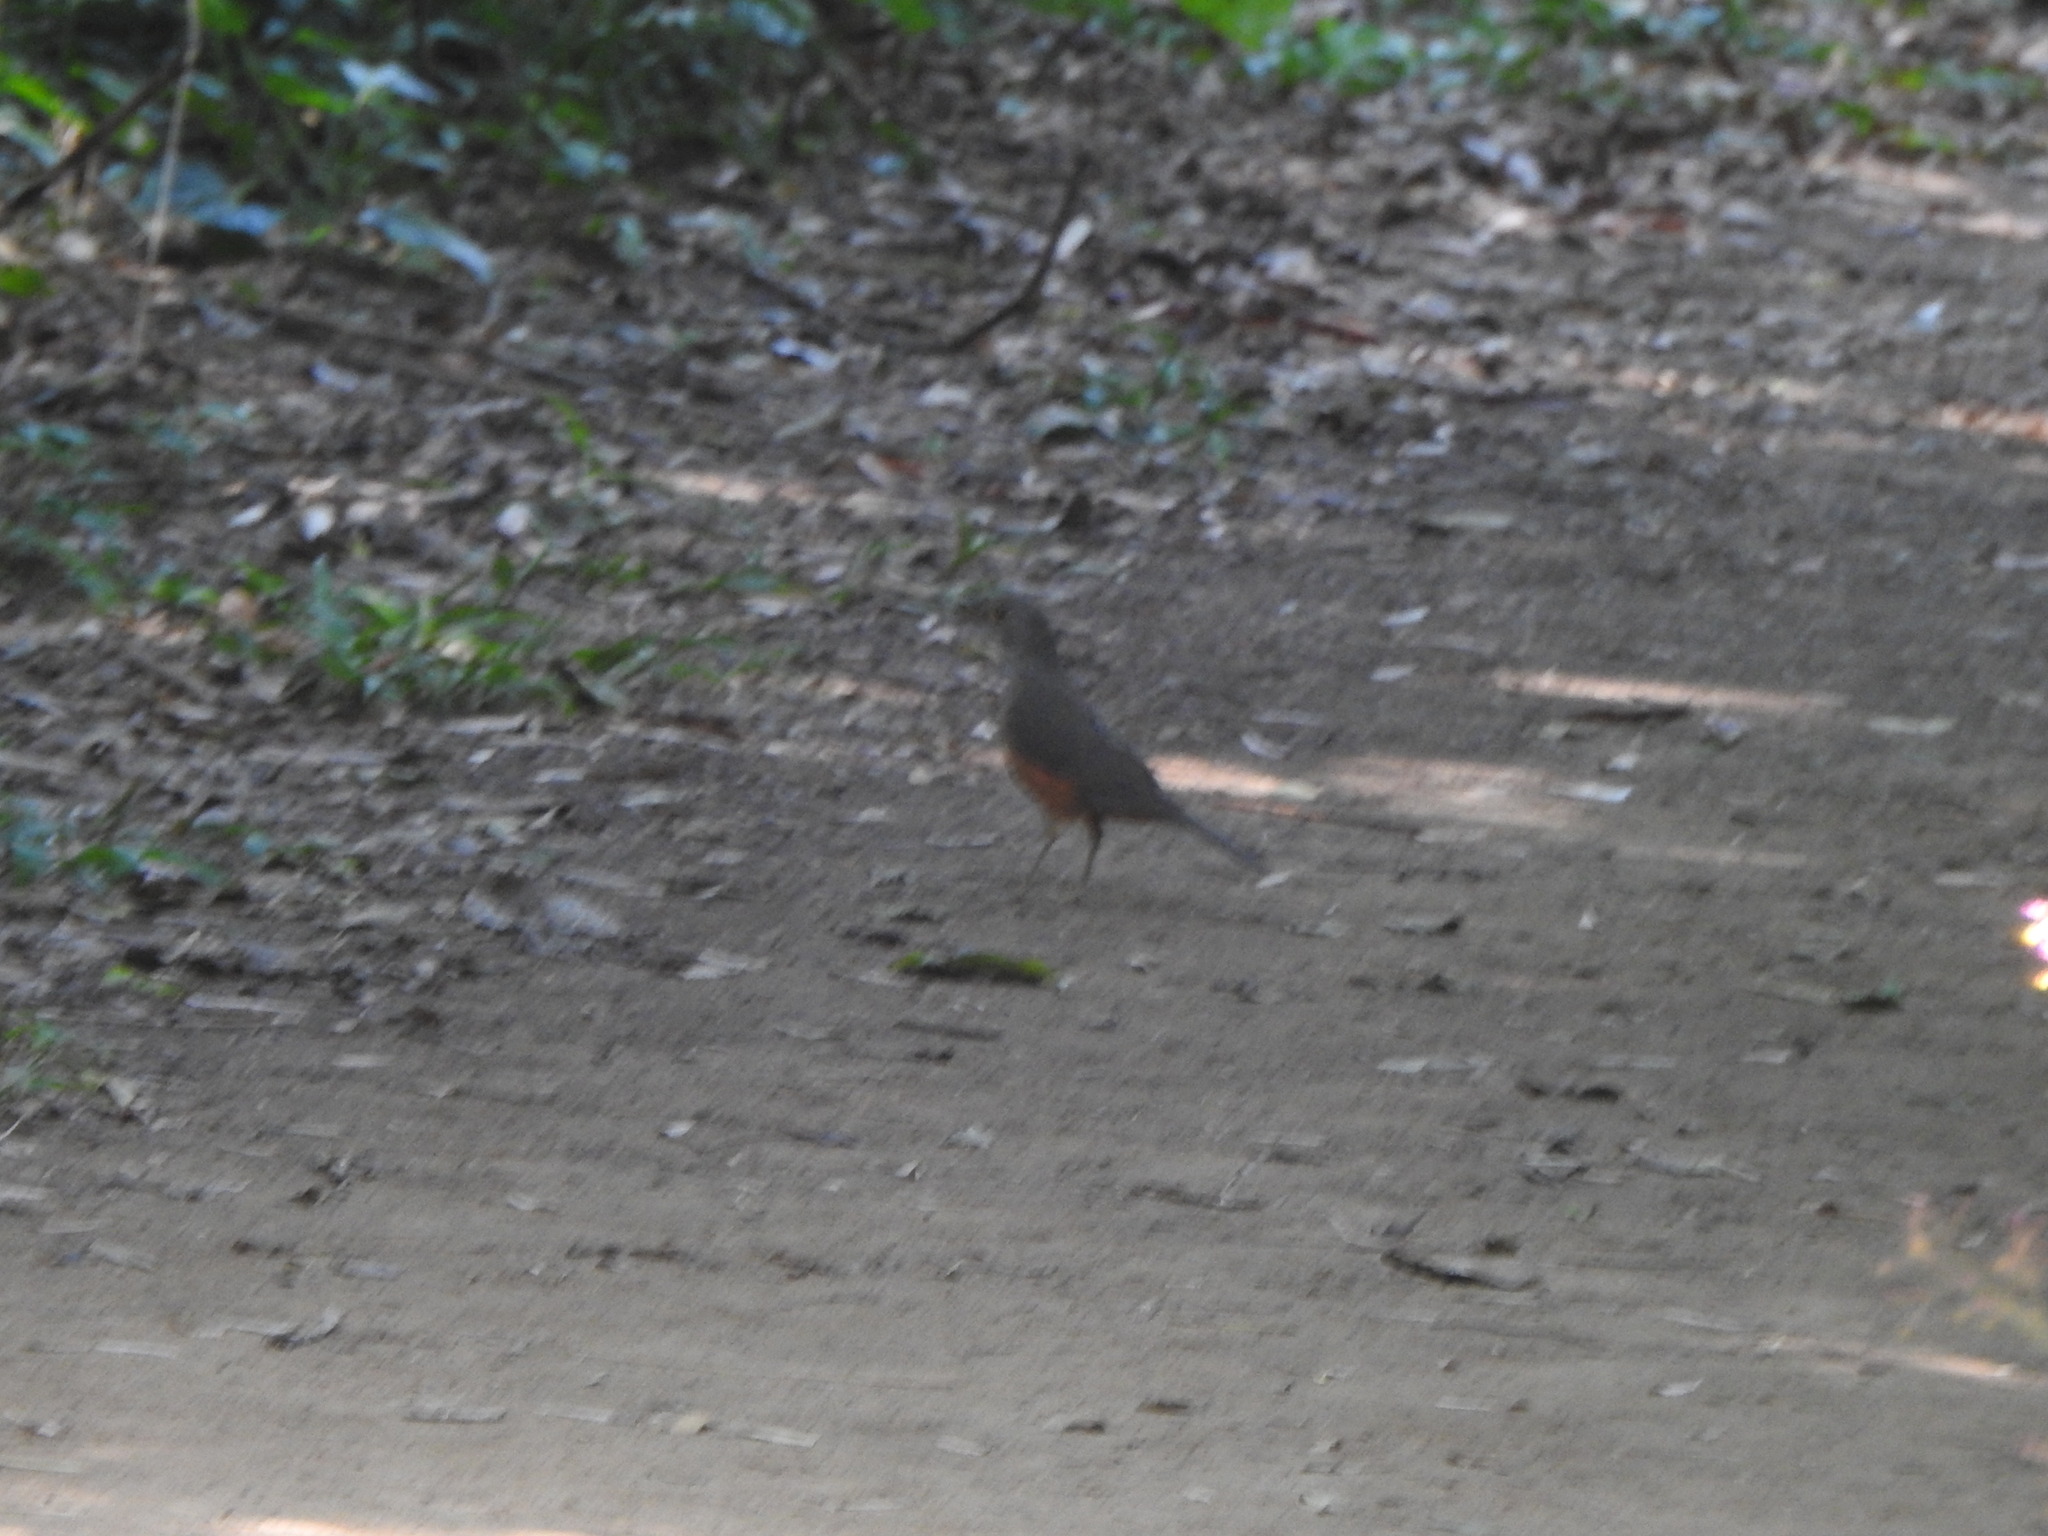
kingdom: Animalia
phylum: Chordata
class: Aves
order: Passeriformes
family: Turdidae
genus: Turdus
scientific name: Turdus rufiventris
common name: Rufous-bellied thrush
